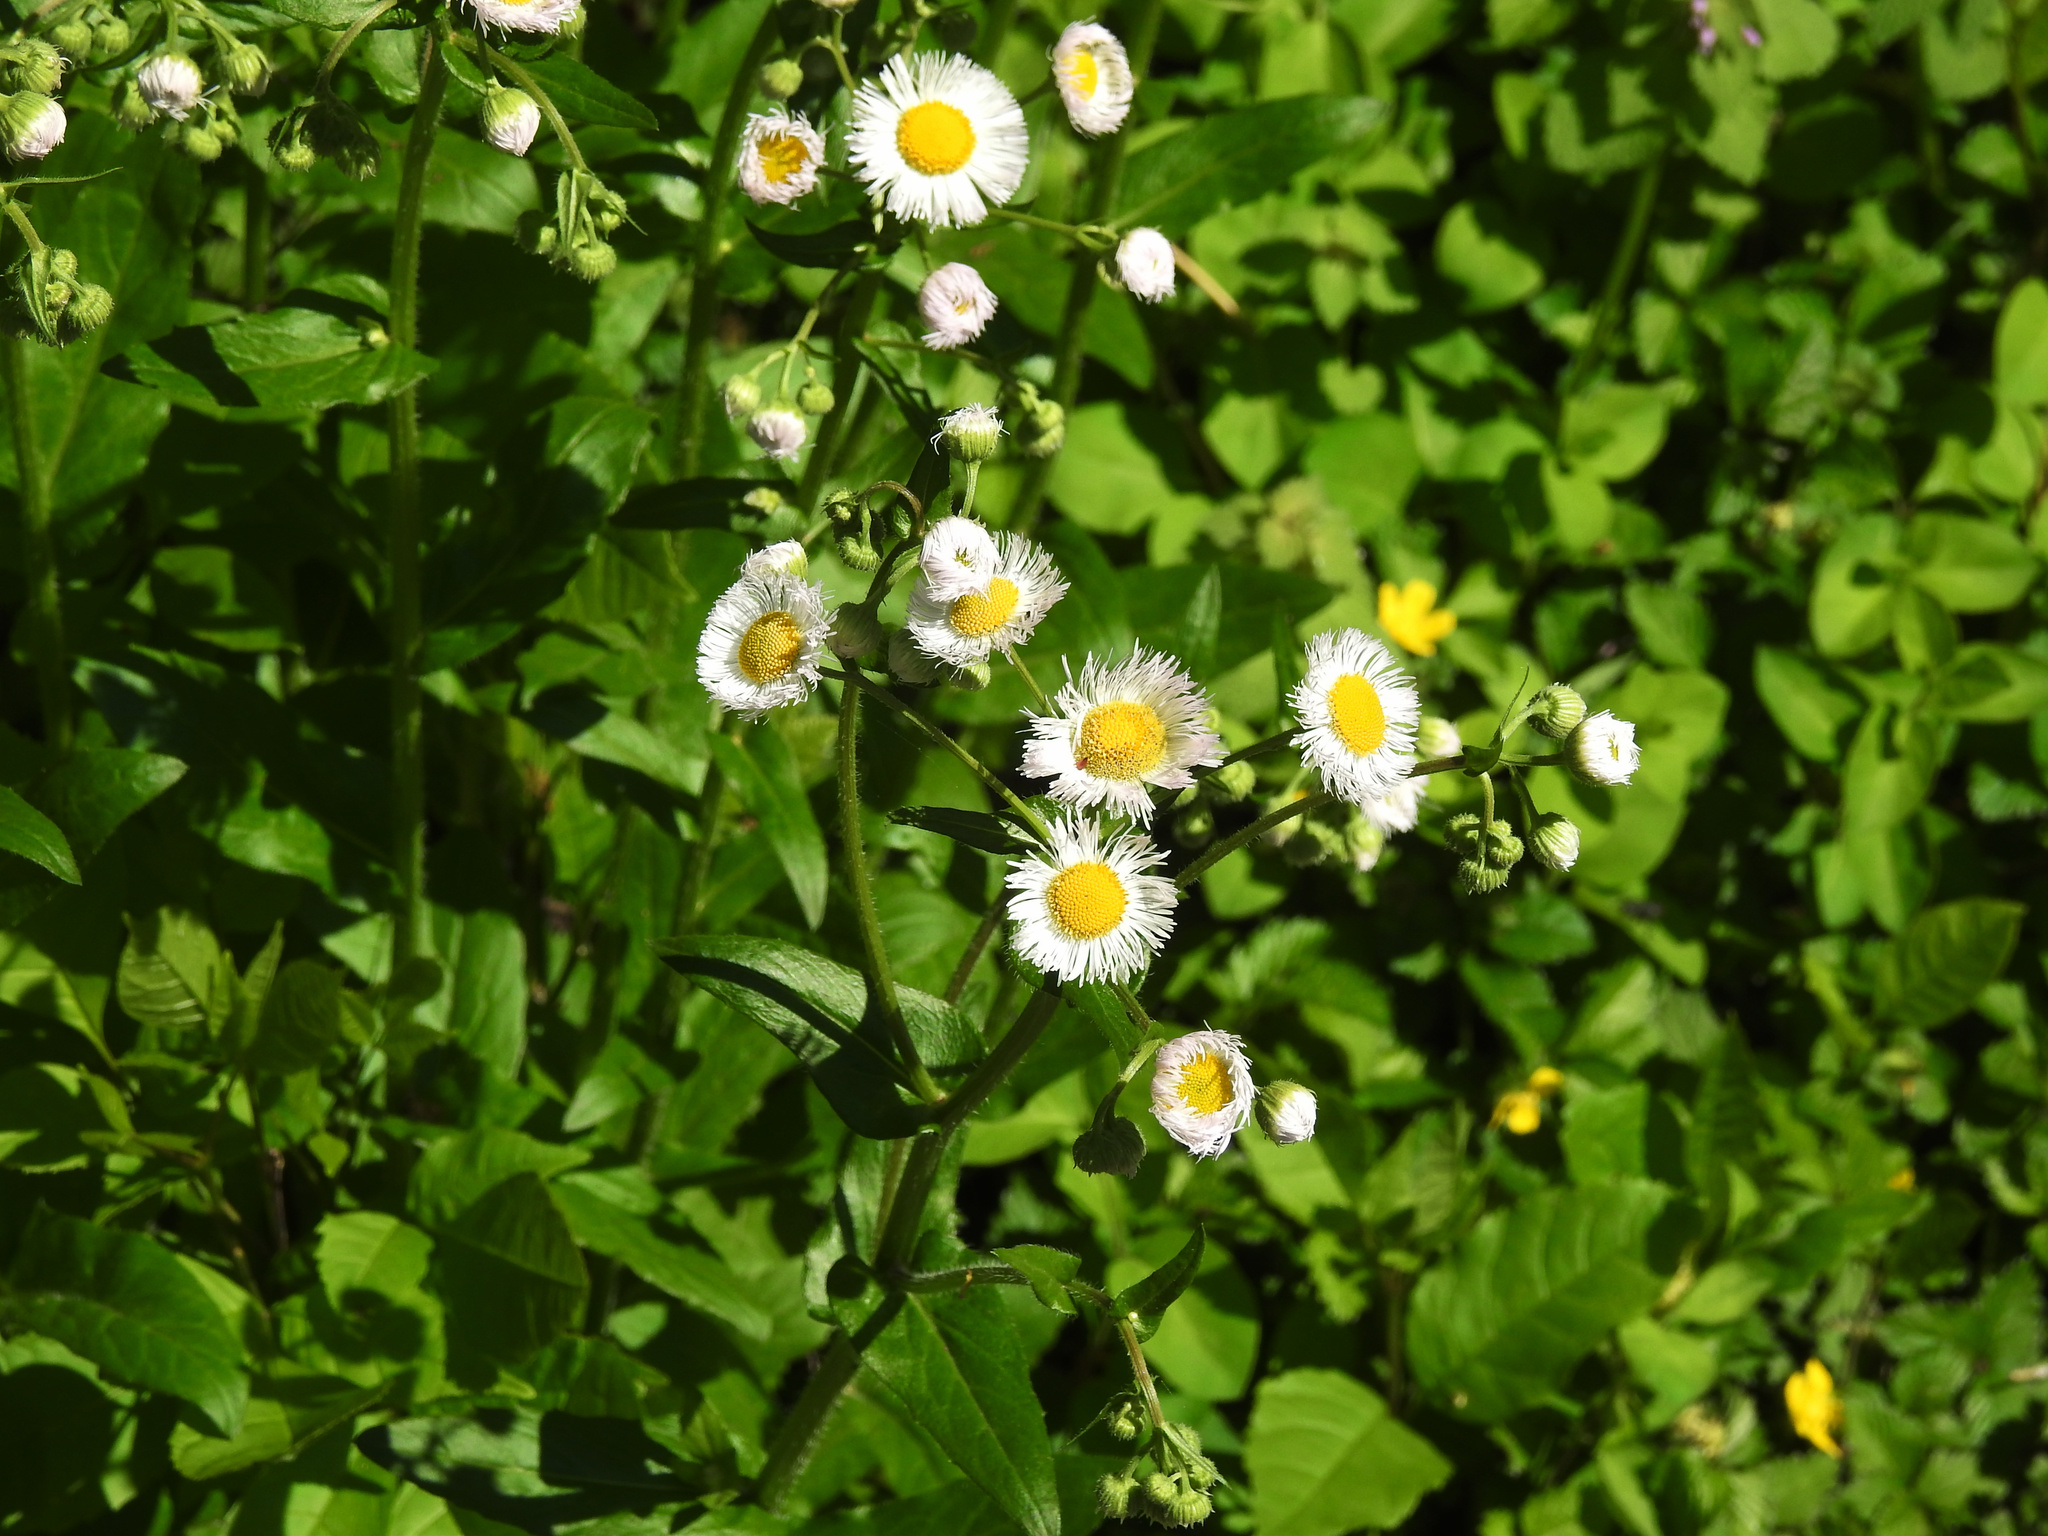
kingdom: Plantae
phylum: Tracheophyta
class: Magnoliopsida
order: Asterales
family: Asteraceae
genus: Erigeron
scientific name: Erigeron philadelphicus
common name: Robin's-plantain
